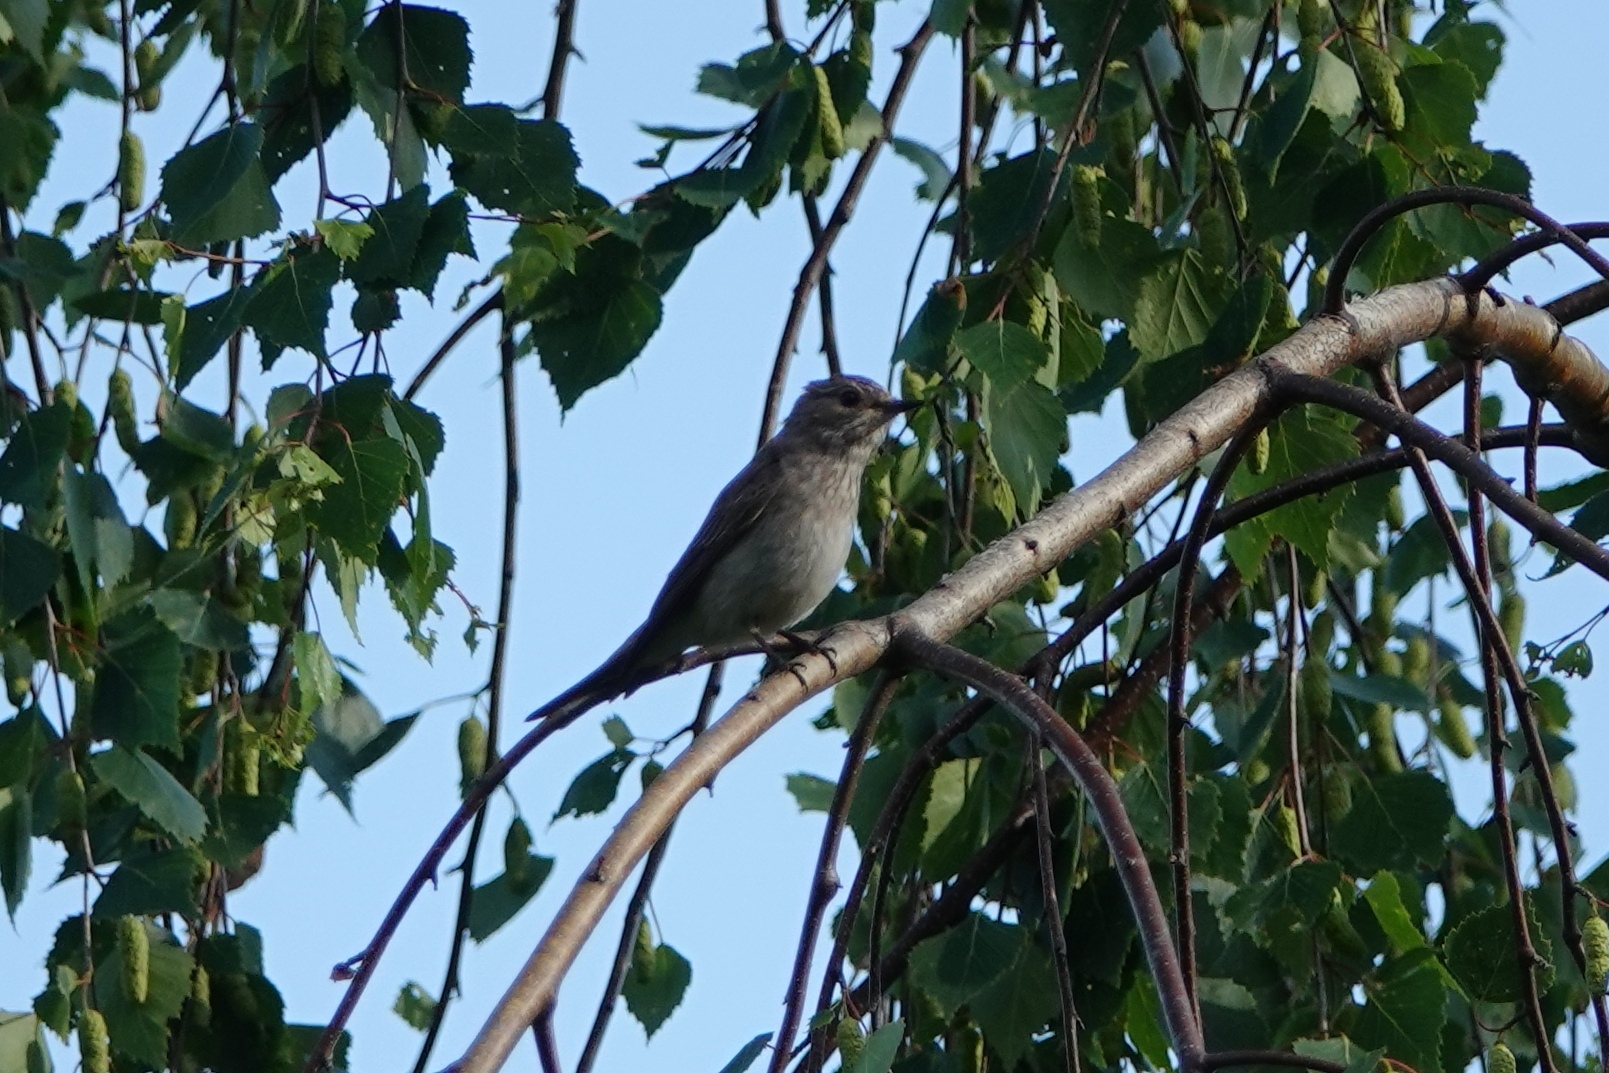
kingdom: Animalia
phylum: Chordata
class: Aves
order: Passeriformes
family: Muscicapidae
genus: Muscicapa
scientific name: Muscicapa striata
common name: Spotted flycatcher
